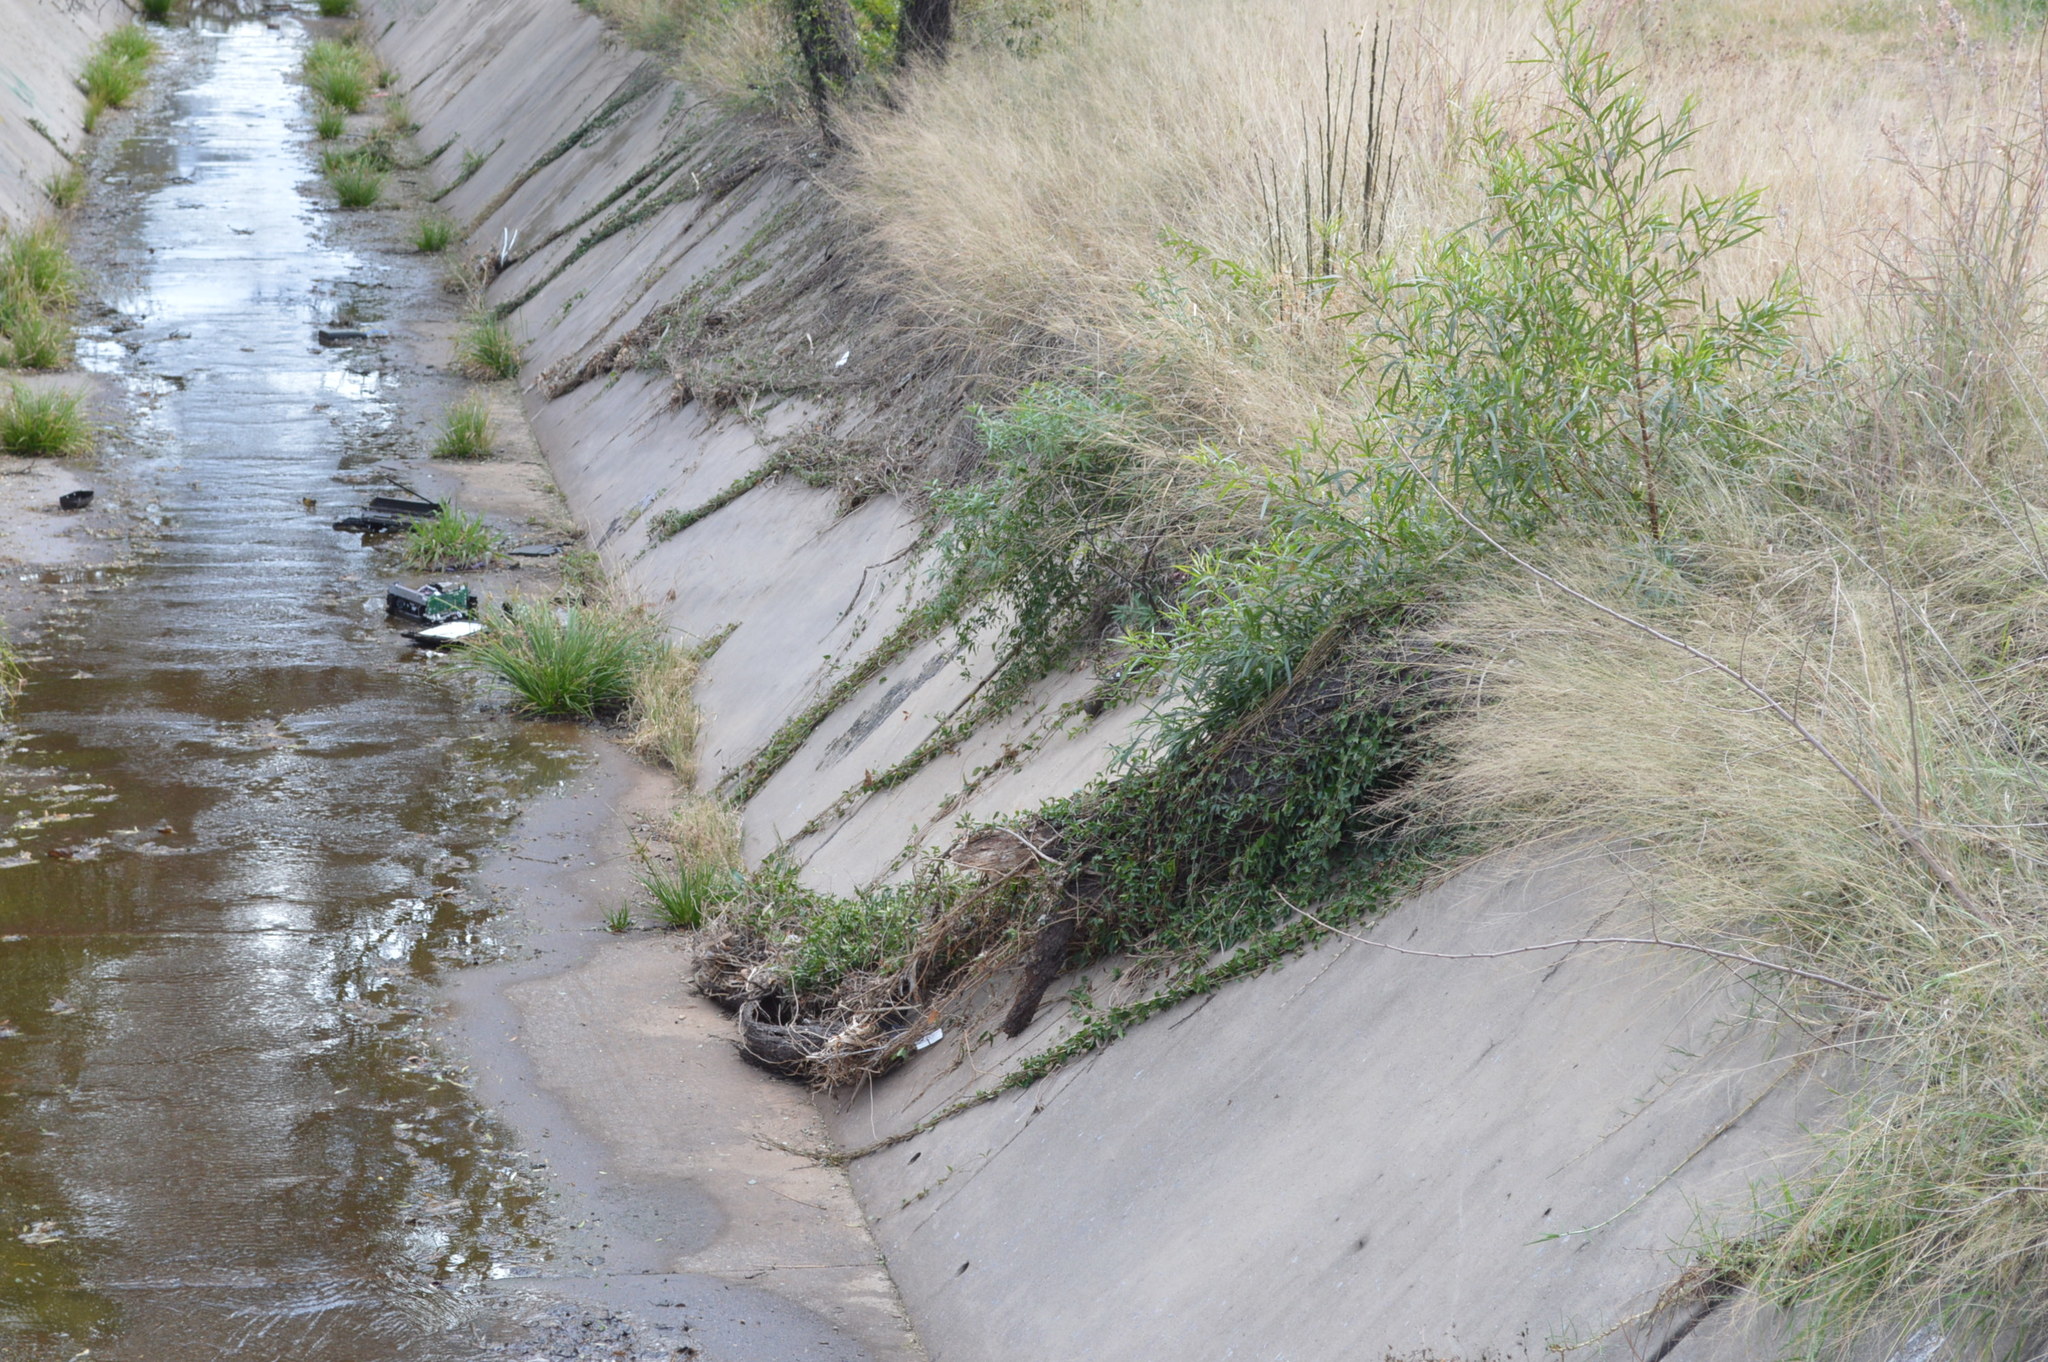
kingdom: Plantae
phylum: Tracheophyta
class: Magnoliopsida
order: Lamiales
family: Bignoniaceae
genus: Dolichandra
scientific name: Dolichandra unguis-cati
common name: Catclaw vine
